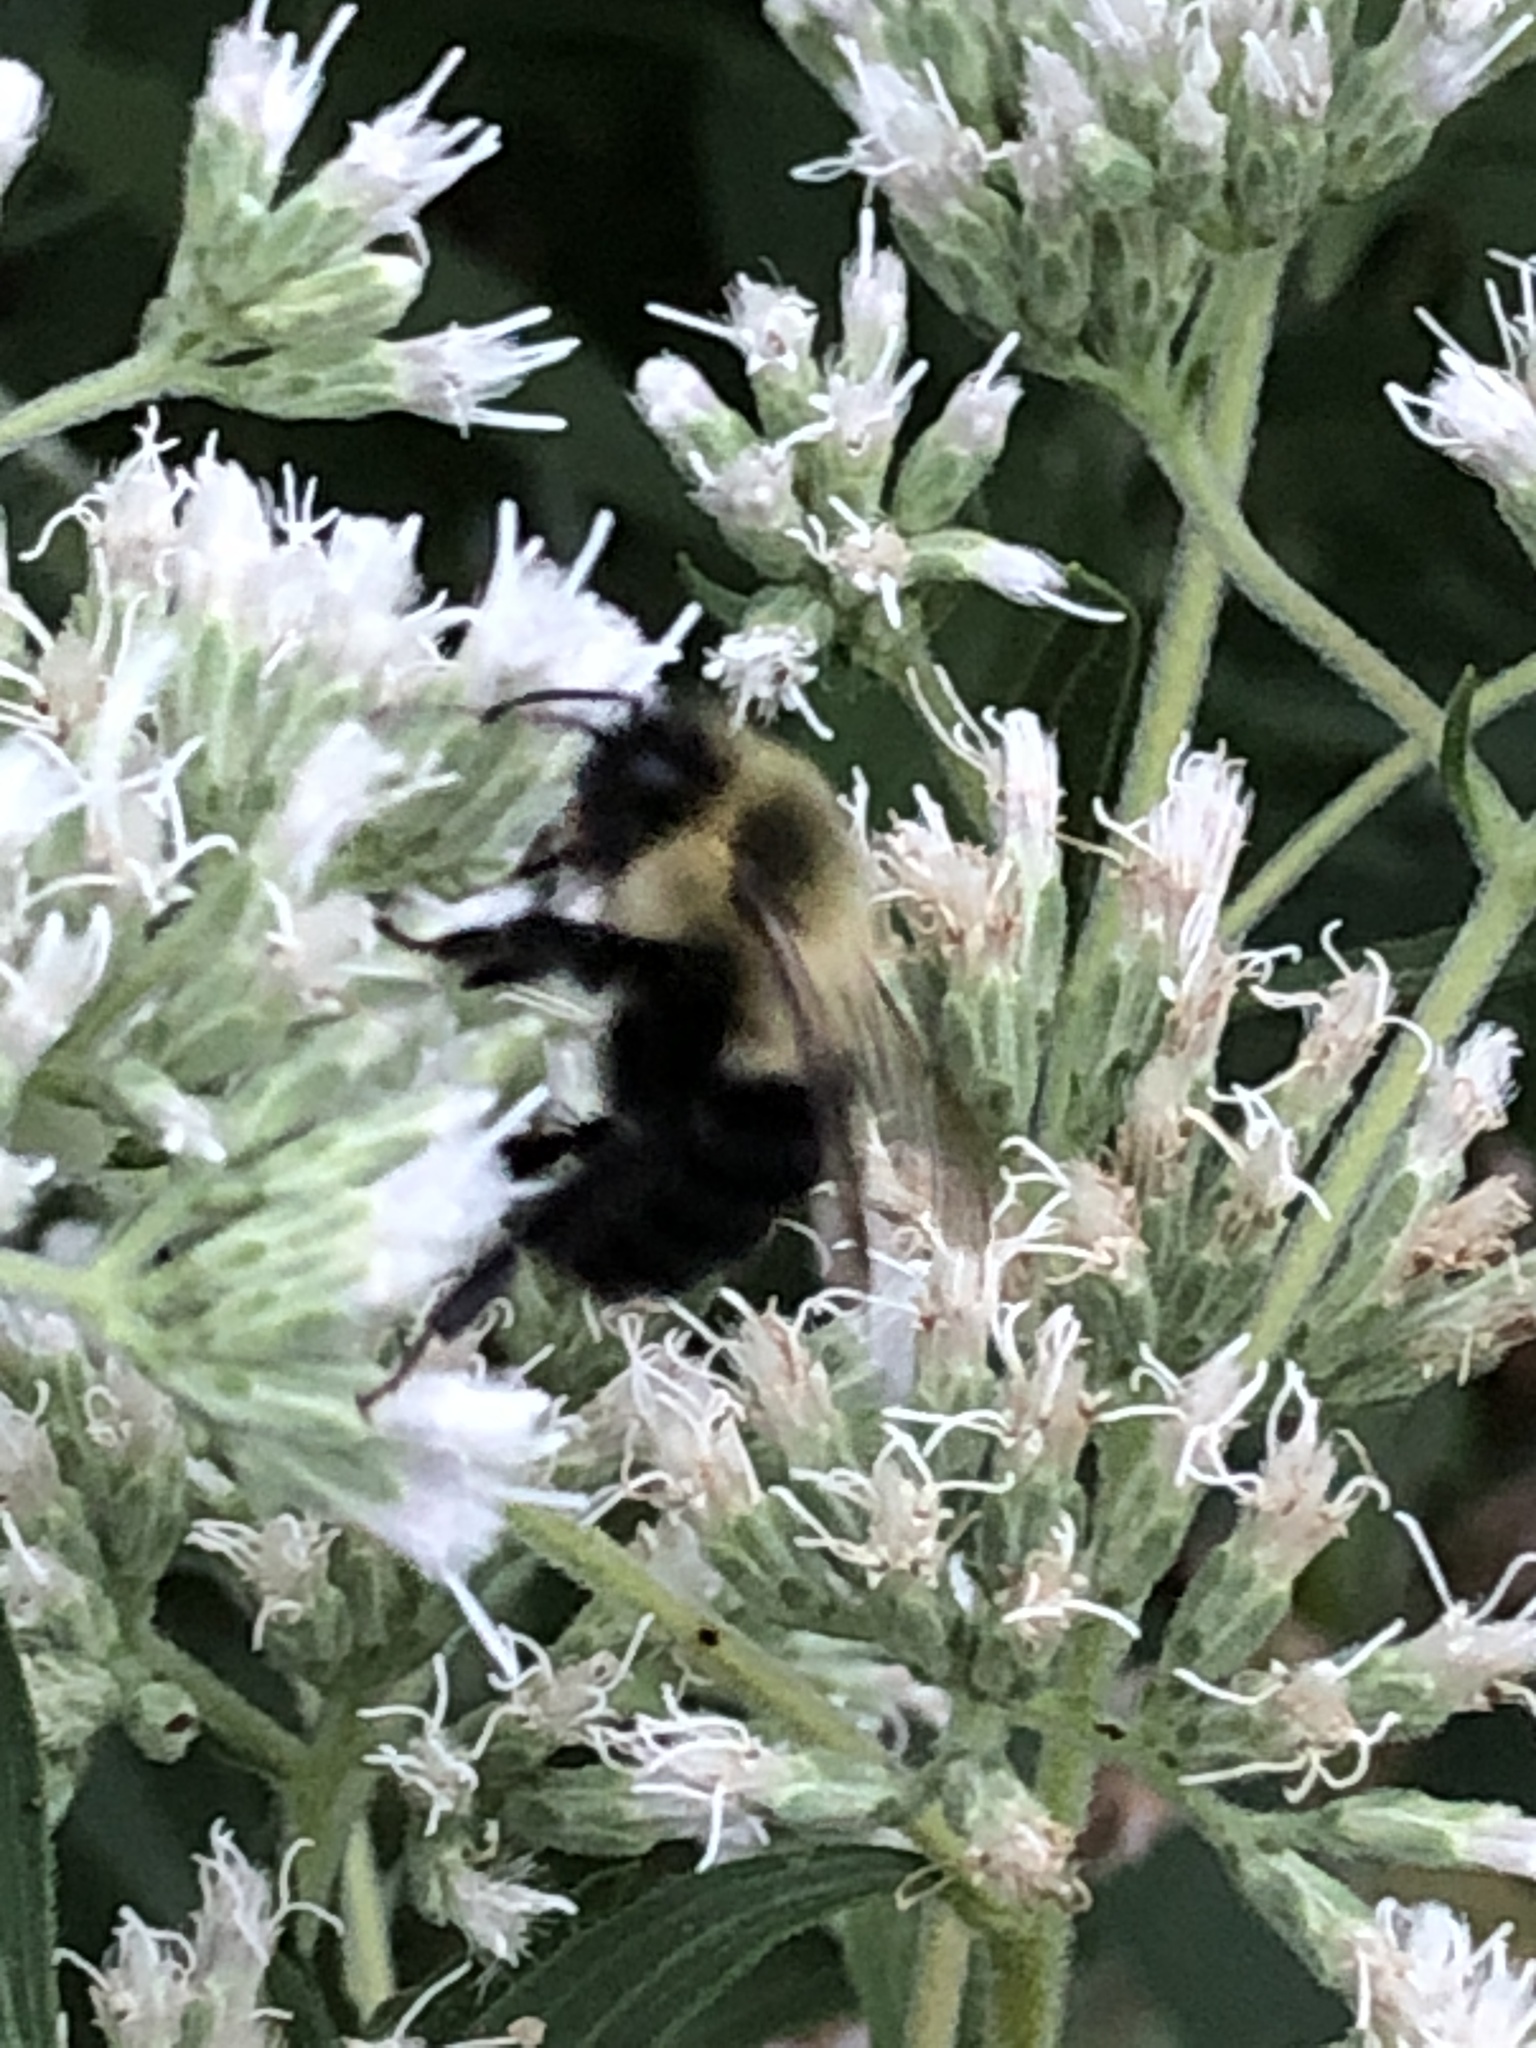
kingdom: Animalia
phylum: Arthropoda
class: Insecta
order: Hymenoptera
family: Apidae
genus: Bombus
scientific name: Bombus impatiens
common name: Common eastern bumble bee
